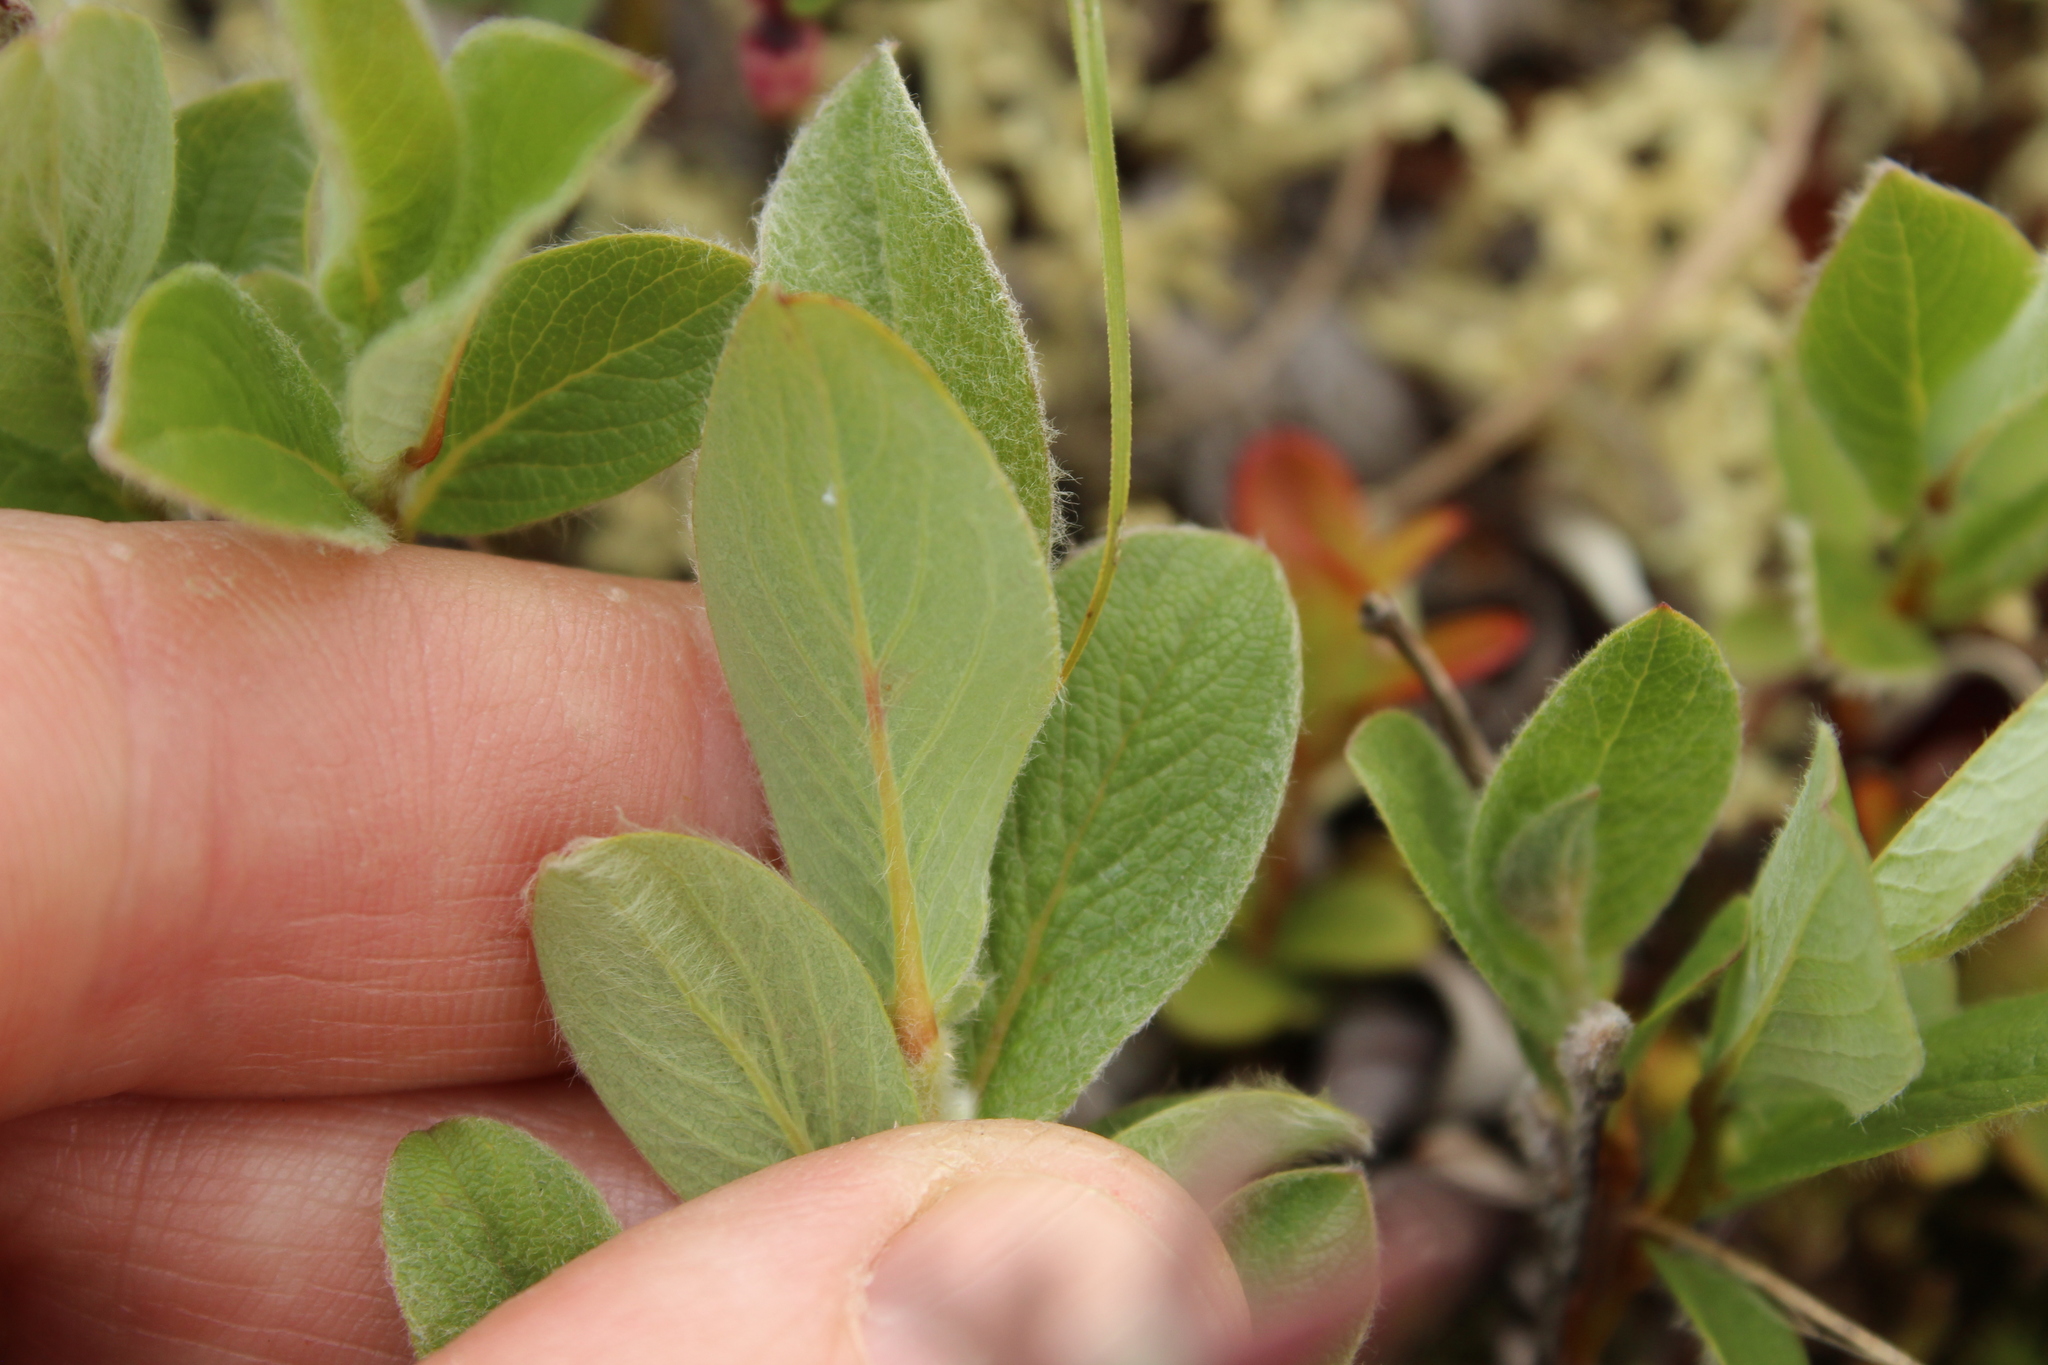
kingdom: Plantae
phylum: Tracheophyta
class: Magnoliopsida
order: Malpighiales
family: Salicaceae
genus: Salix
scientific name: Salix reptans
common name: Arctic creeping willow
